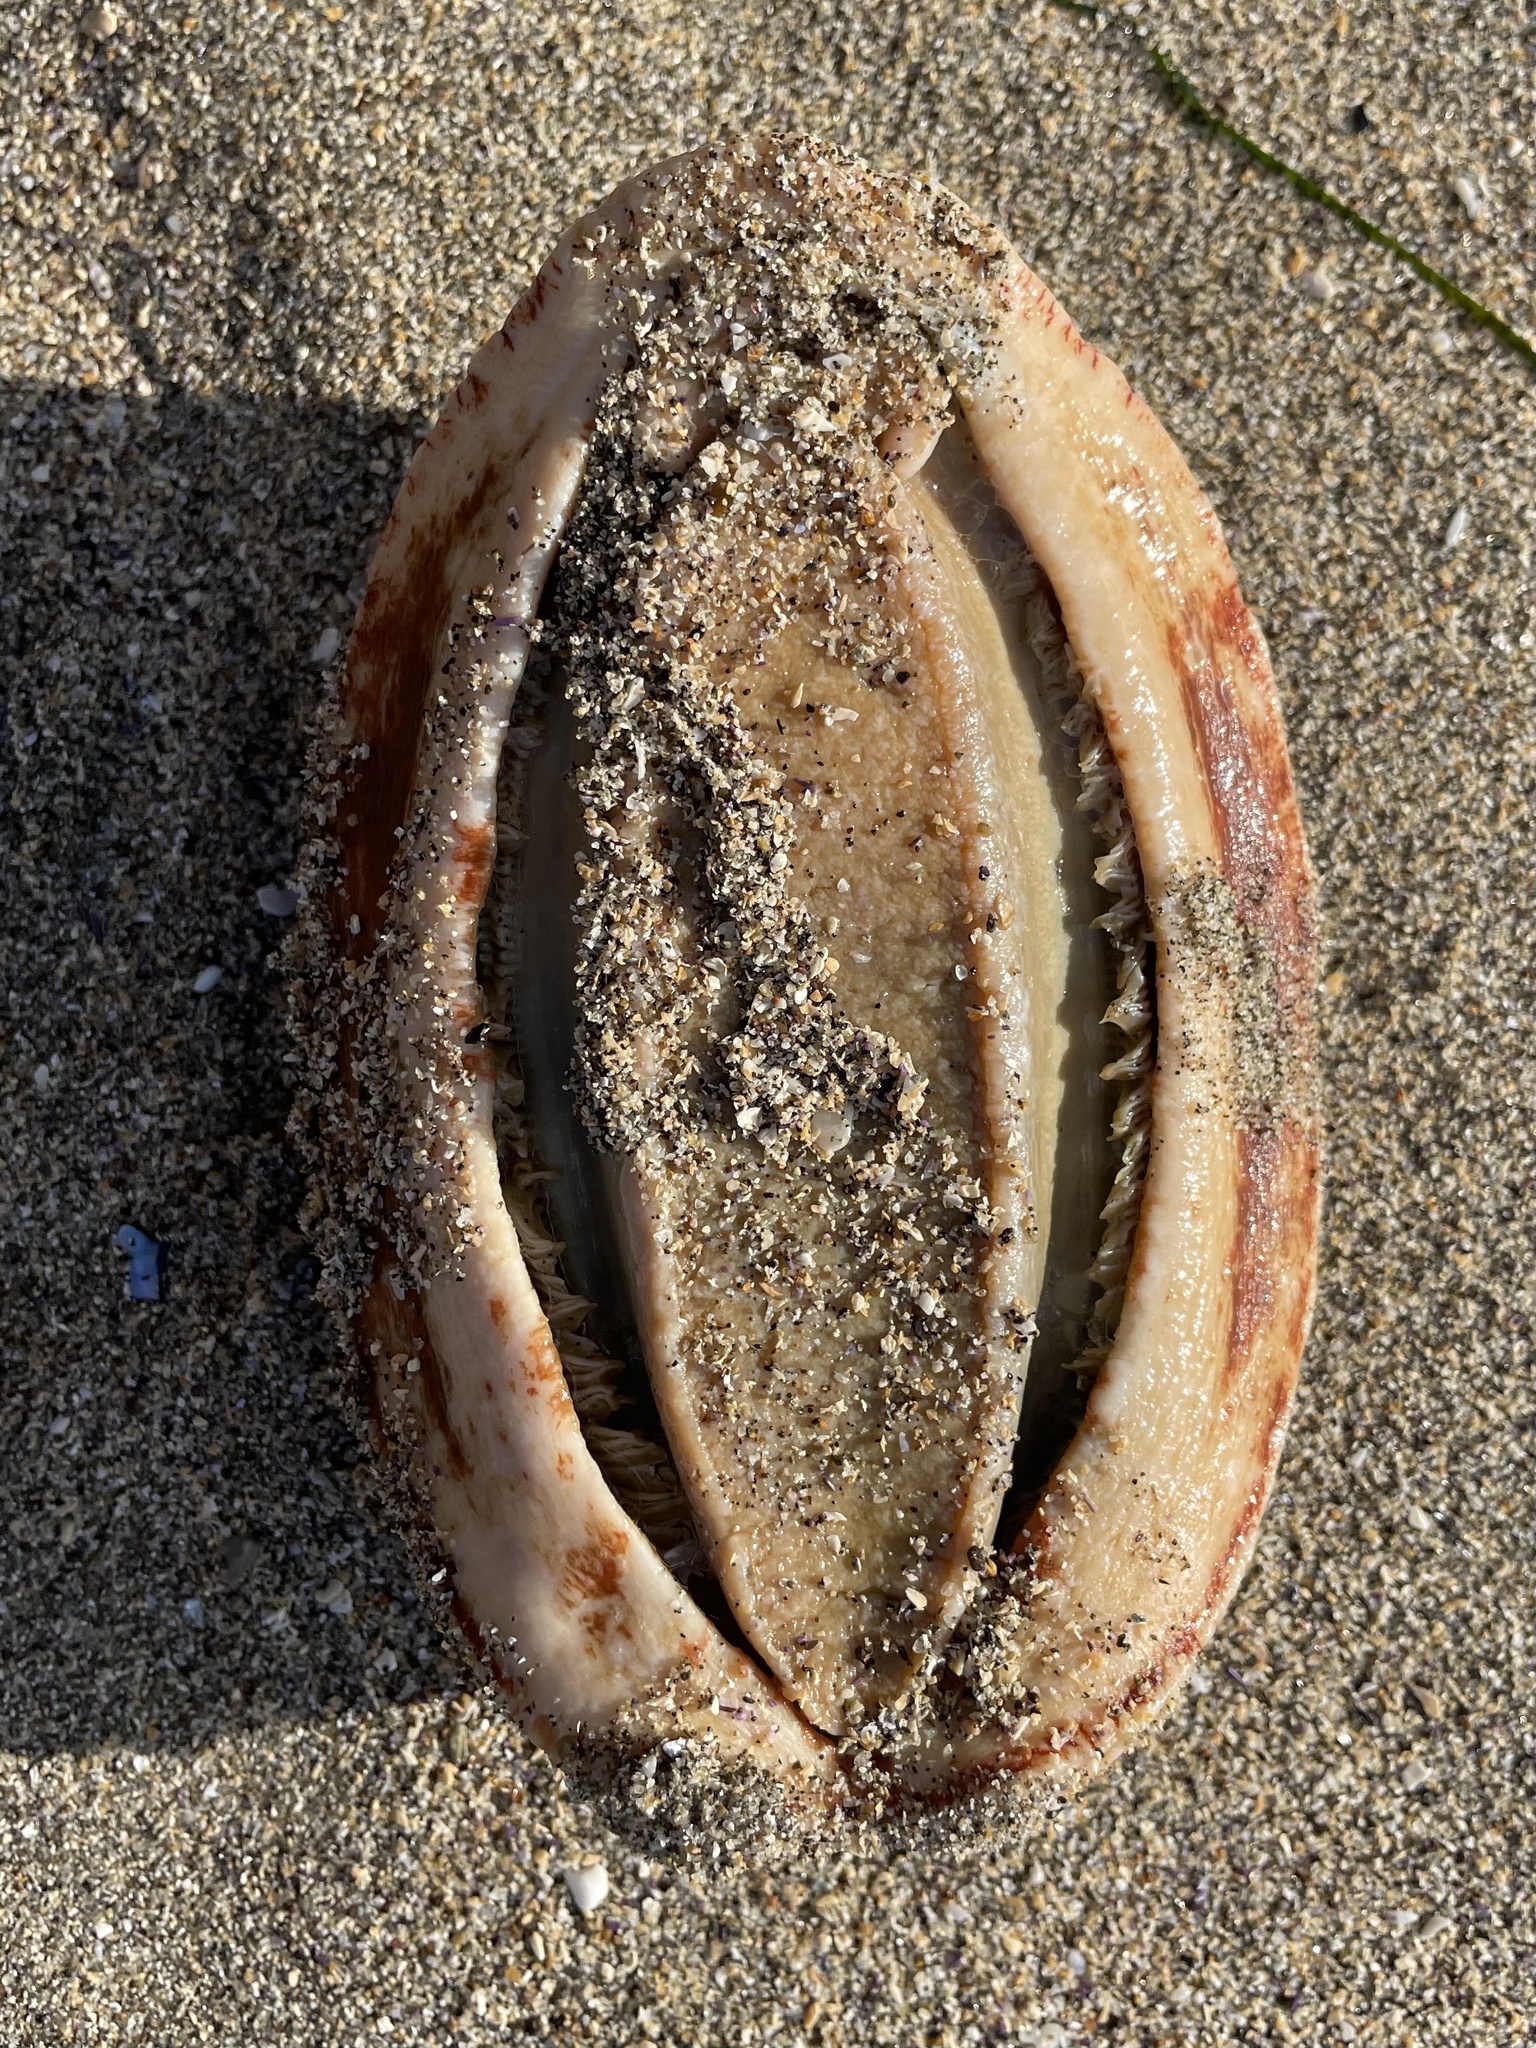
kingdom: Animalia
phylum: Mollusca
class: Polyplacophora
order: Chitonida
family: Acanthochitonidae
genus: Cryptochiton
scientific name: Cryptochiton stelleri
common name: Giant pacific chiton
